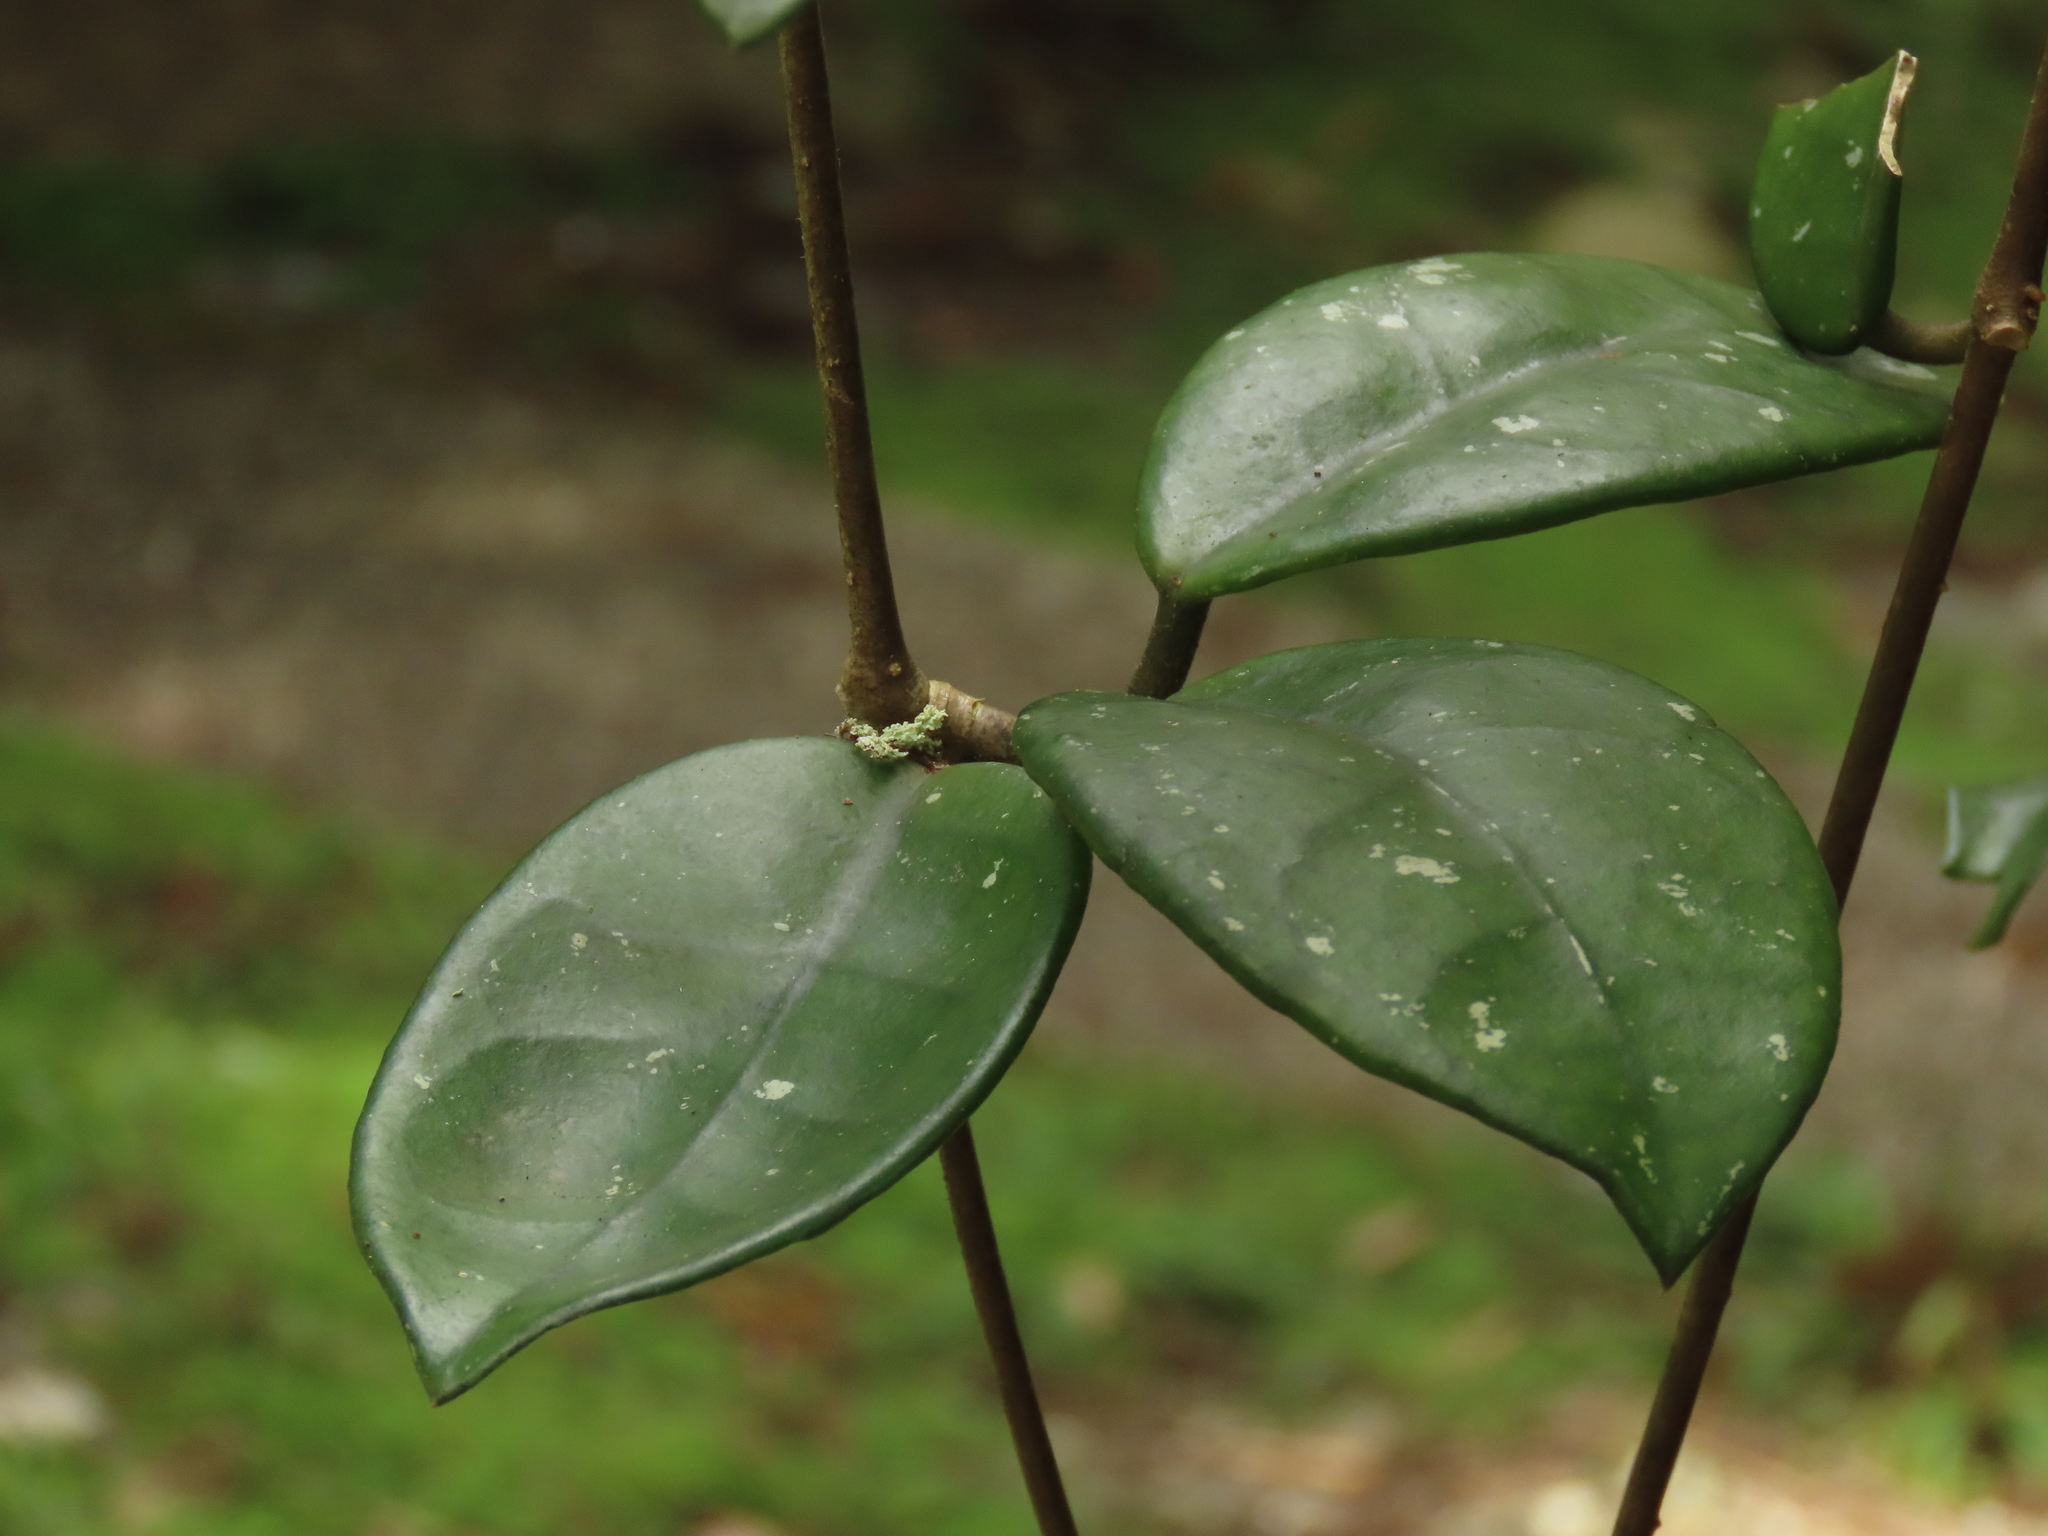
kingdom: Plantae
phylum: Tracheophyta
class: Magnoliopsida
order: Gentianales
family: Apocynaceae
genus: Hoya
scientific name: Hoya carnosa
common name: Honeyplant
